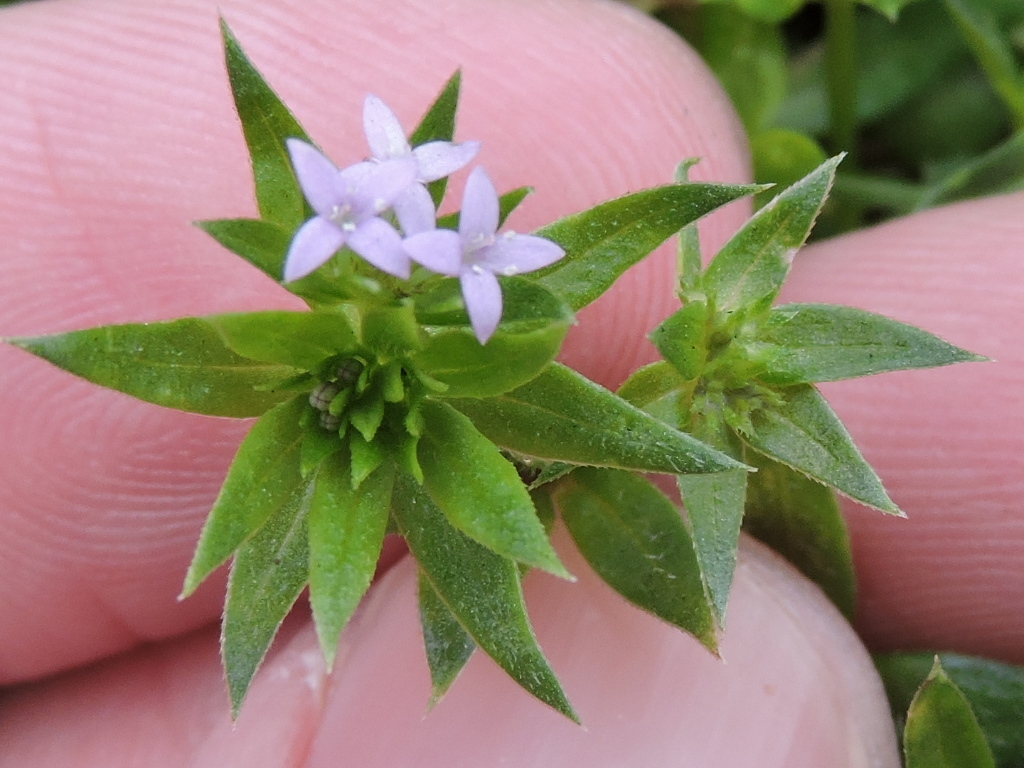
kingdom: Plantae
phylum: Tracheophyta
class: Magnoliopsida
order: Gentianales
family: Rubiaceae
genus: Sherardia
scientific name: Sherardia arvensis
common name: Field madder
